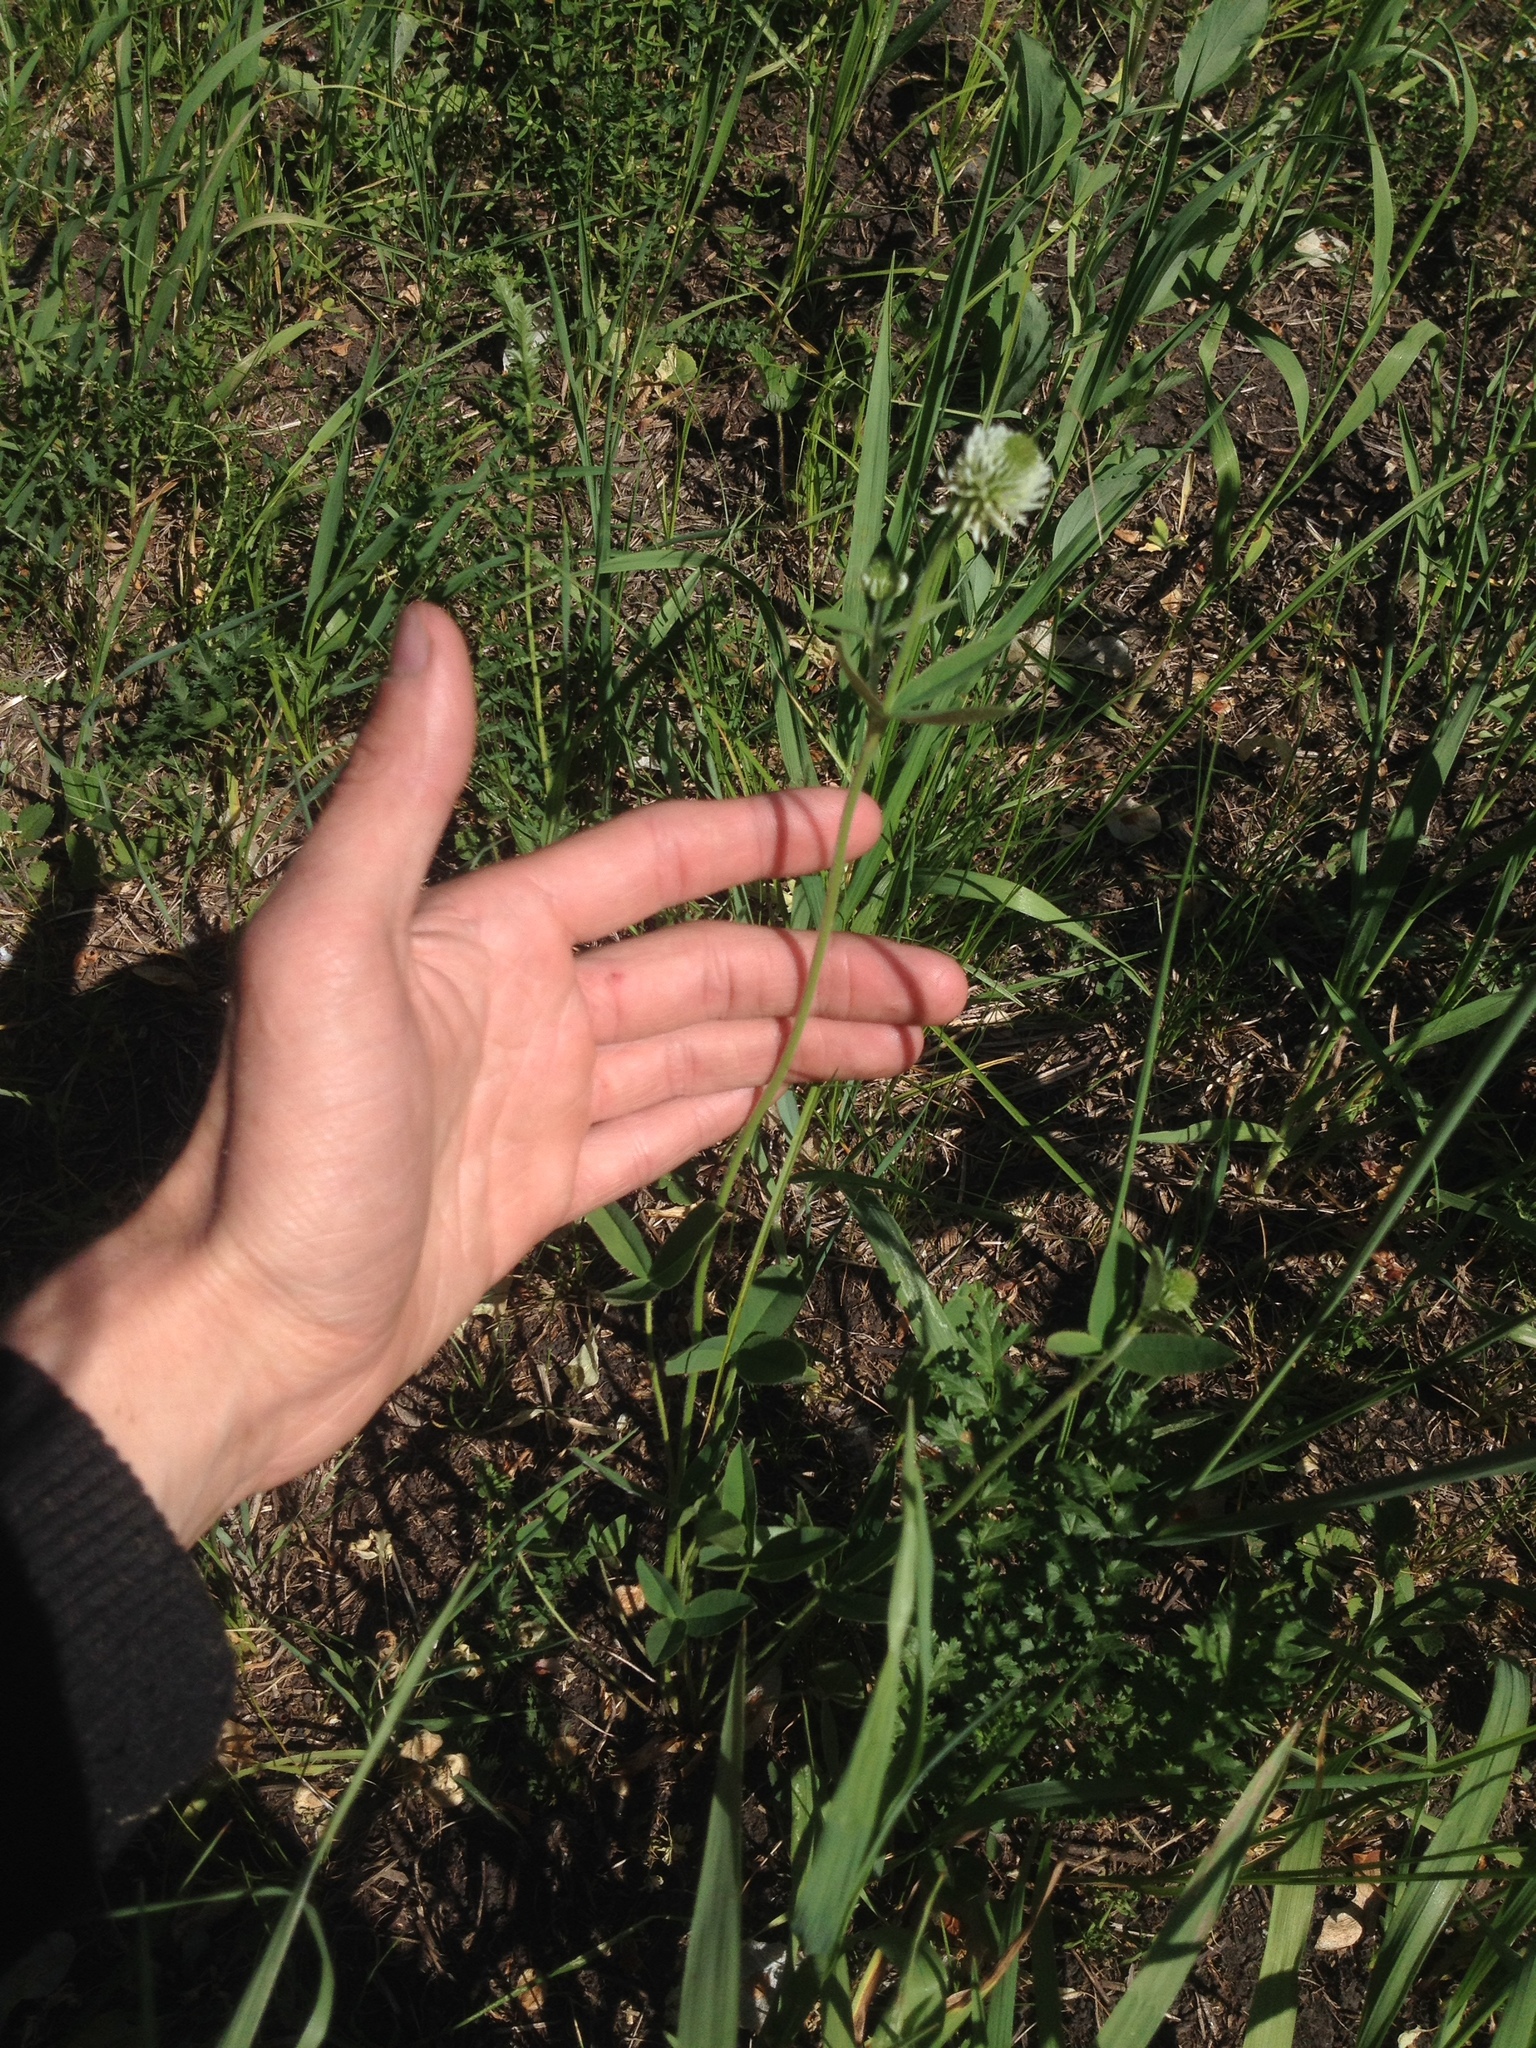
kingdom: Plantae
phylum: Tracheophyta
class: Magnoliopsida
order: Fabales
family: Fabaceae
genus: Trifolium
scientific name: Trifolium montanum
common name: Mountain clover
